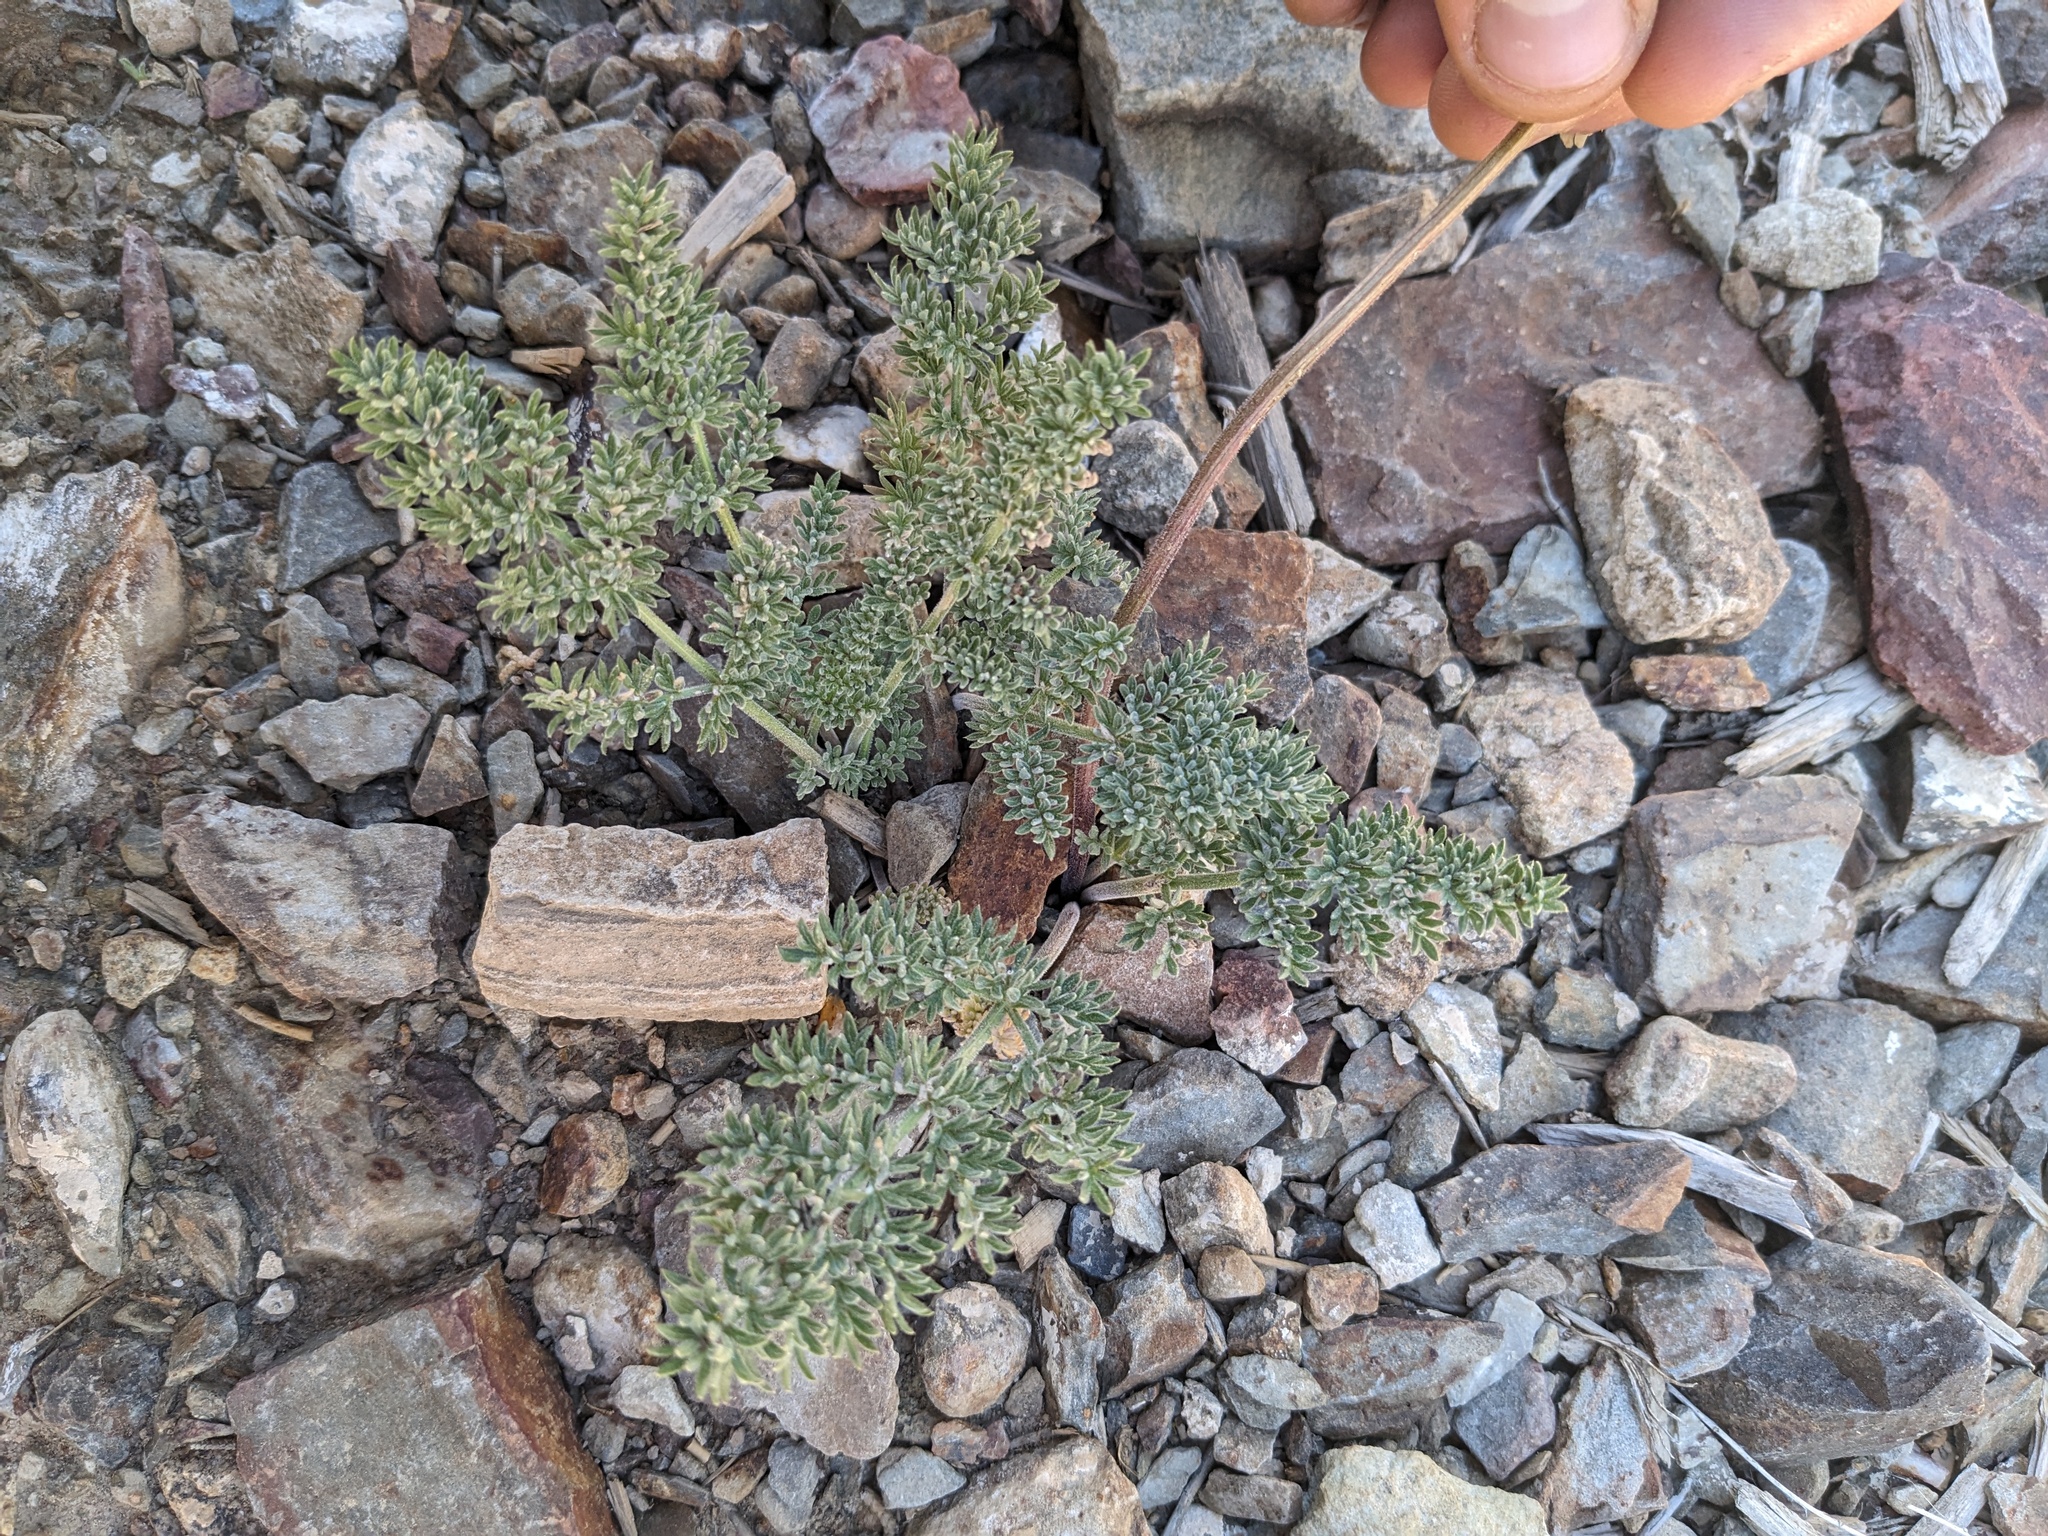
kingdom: Plantae
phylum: Tracheophyta
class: Magnoliopsida
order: Apiales
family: Apiaceae
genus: Lomatium
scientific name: Lomatium foeniculaceum
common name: Desert-parsley
